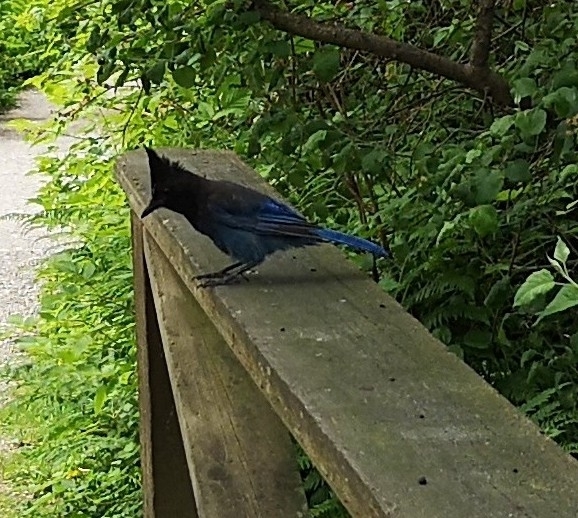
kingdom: Animalia
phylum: Chordata
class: Aves
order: Passeriformes
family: Corvidae
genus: Cyanocitta
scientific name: Cyanocitta stelleri
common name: Steller's jay
